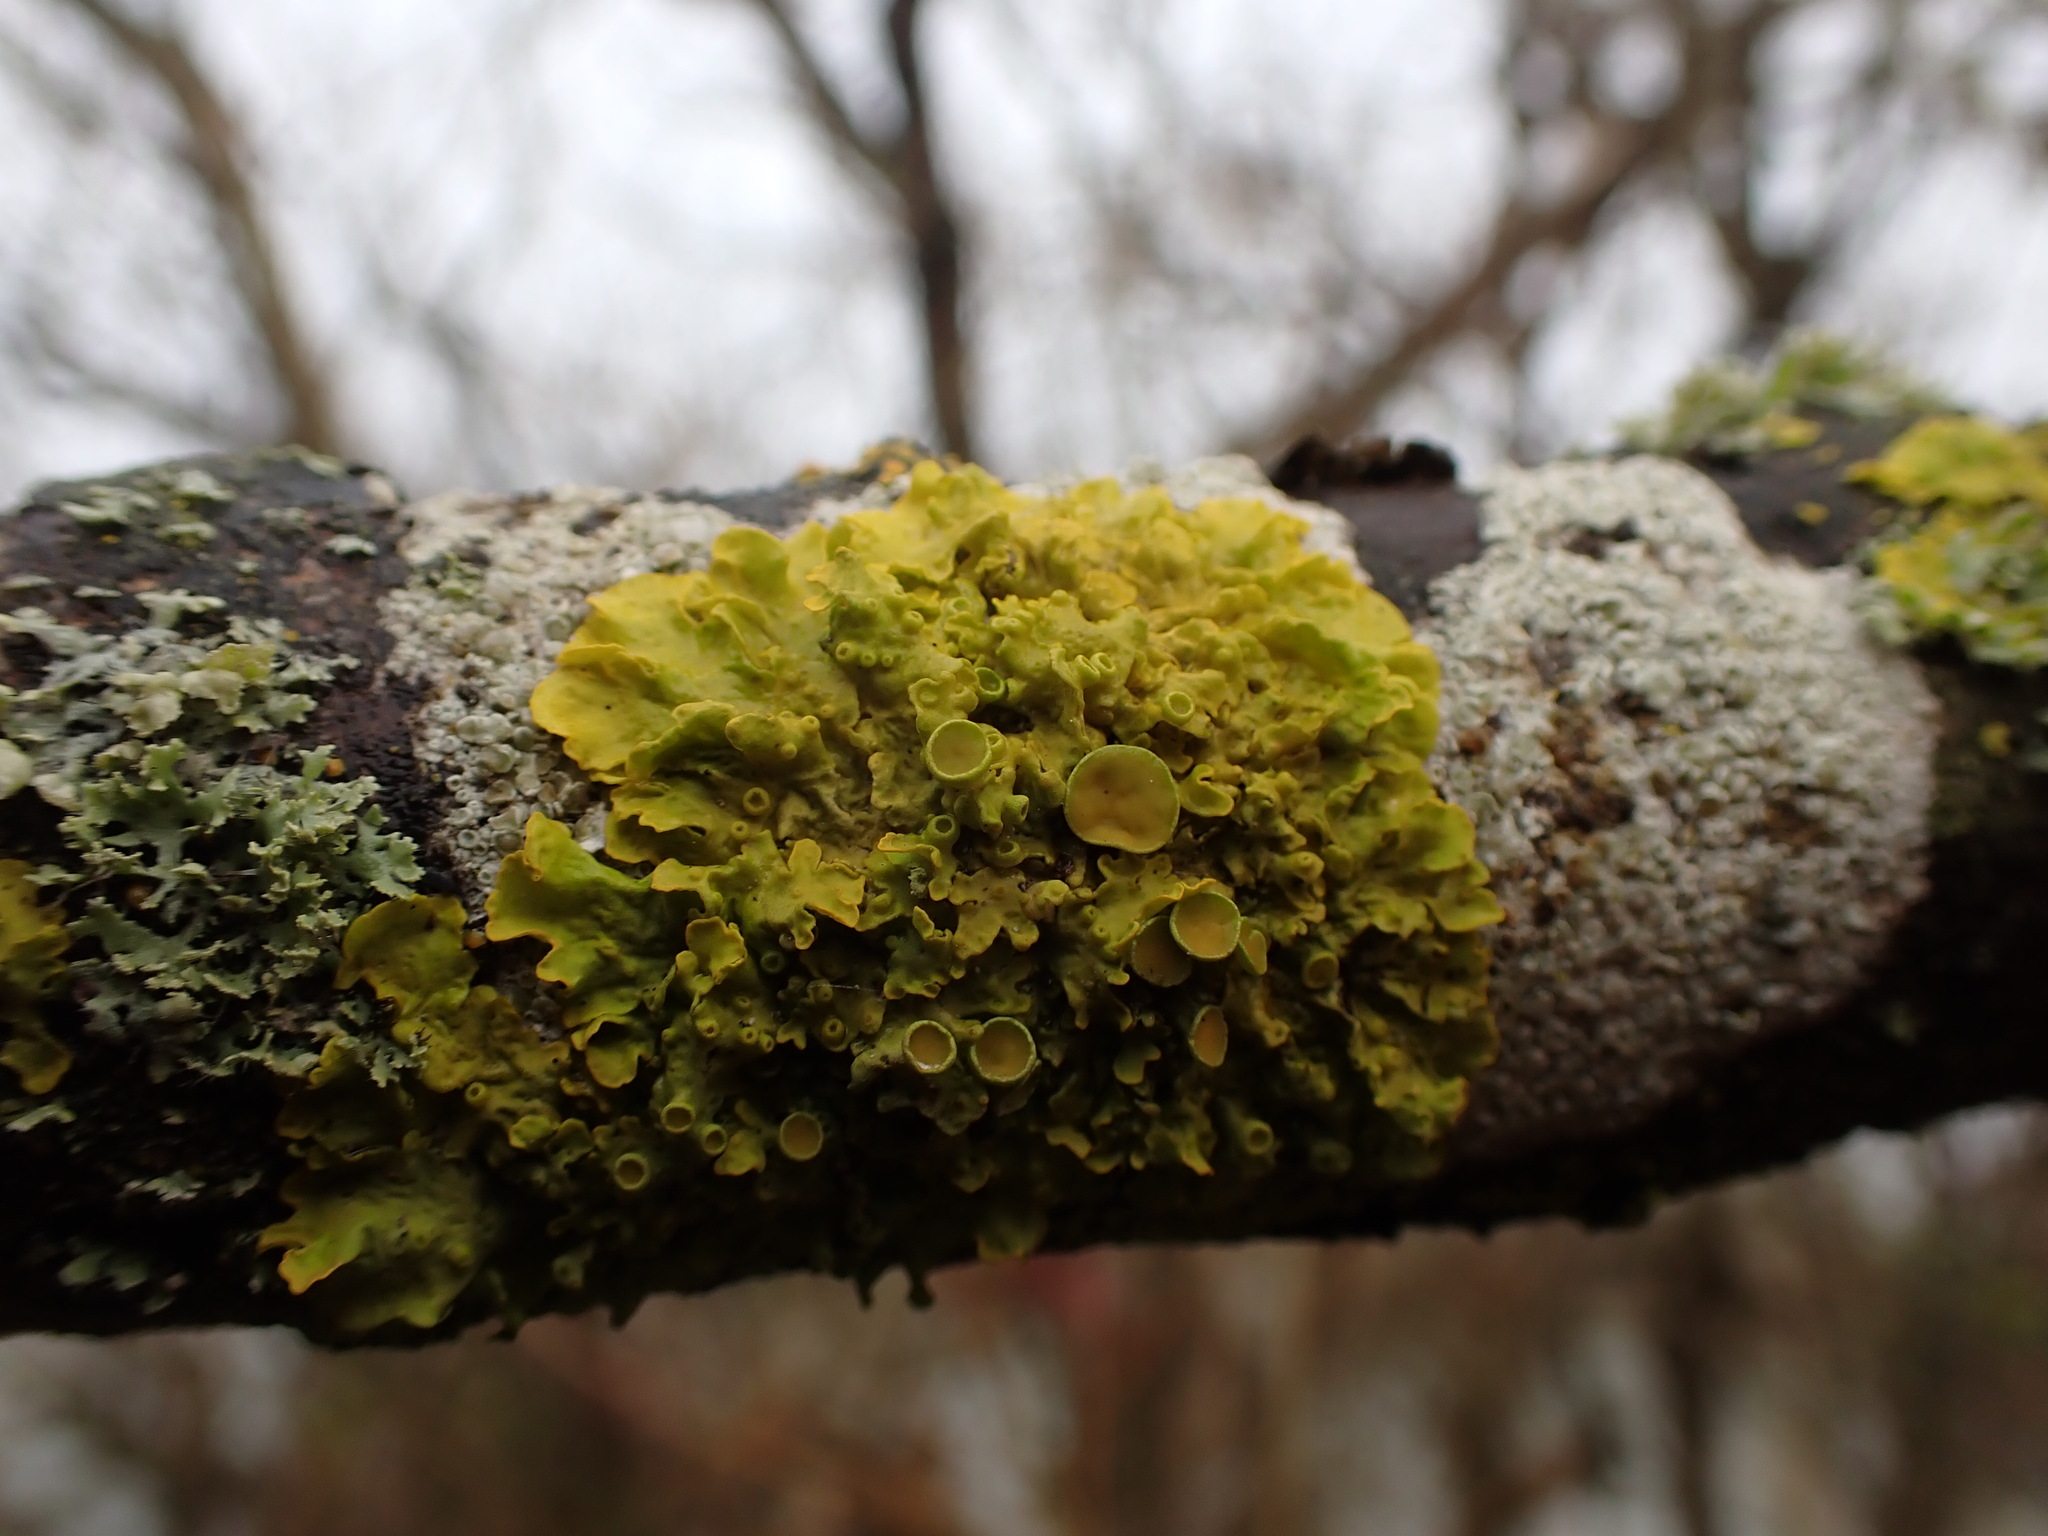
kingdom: Fungi
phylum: Ascomycota
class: Lecanoromycetes
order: Teloschistales
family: Teloschistaceae
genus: Xanthoria
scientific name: Xanthoria parietina
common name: Common orange lichen
